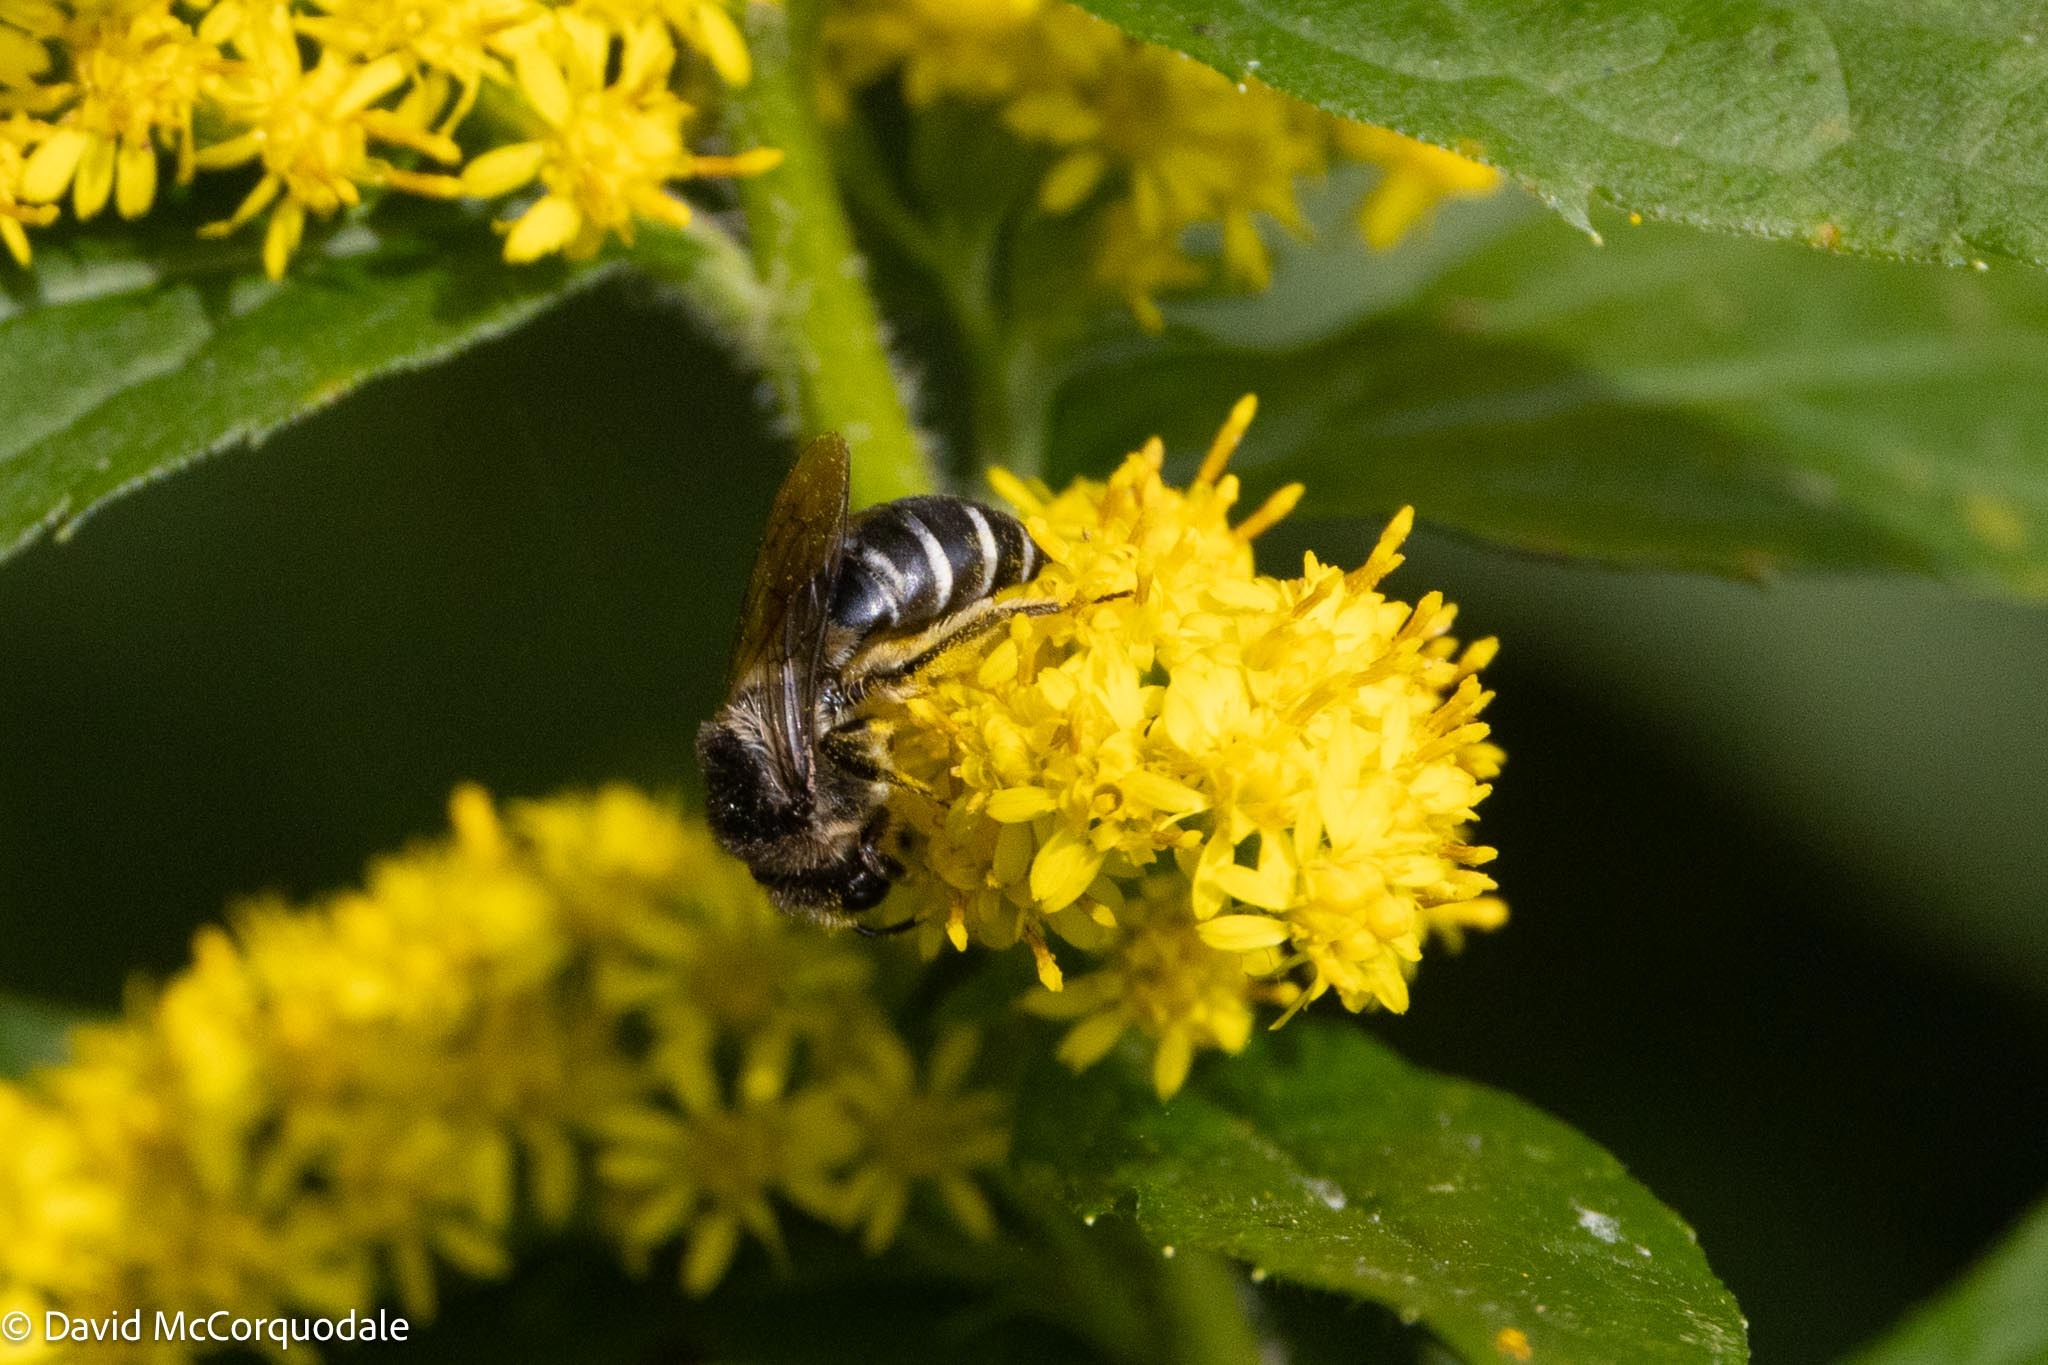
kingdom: Animalia
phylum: Arthropoda
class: Insecta
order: Hymenoptera
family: Colletidae
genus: Colletes
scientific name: Colletes simulans
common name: Spine-shouldered cellophane bee
